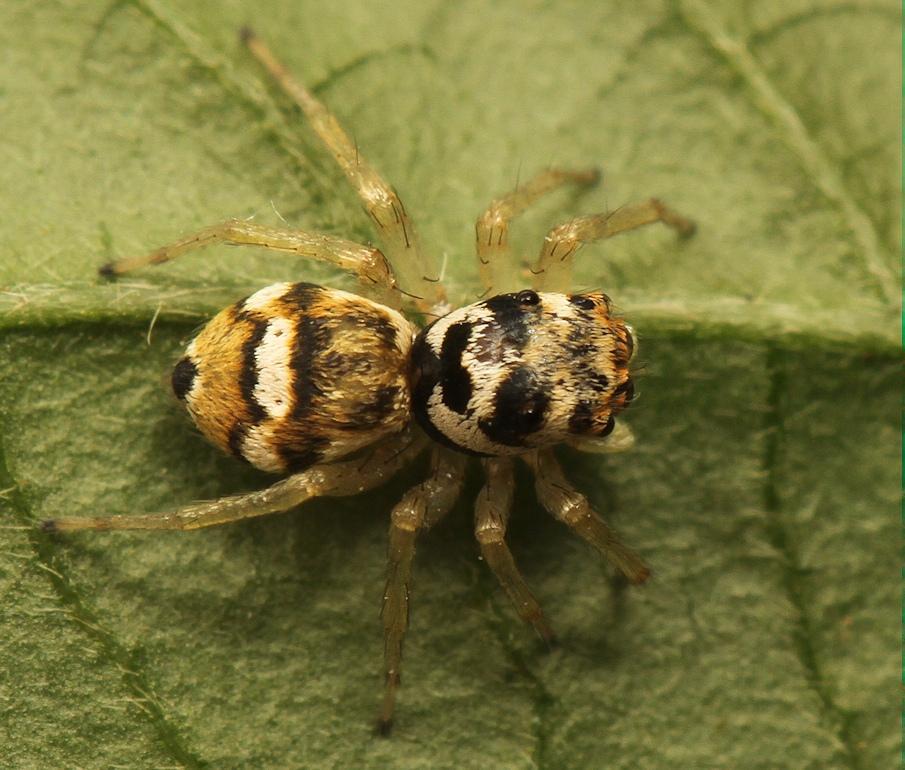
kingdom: Animalia
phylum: Arthropoda
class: Arachnida
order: Araneae
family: Salticidae
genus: Phintella
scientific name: Phintella aequipes
